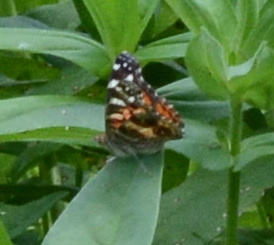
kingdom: Animalia
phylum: Arthropoda
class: Insecta
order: Lepidoptera
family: Nymphalidae
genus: Vanessa
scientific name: Vanessa virginiensis
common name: American lady
